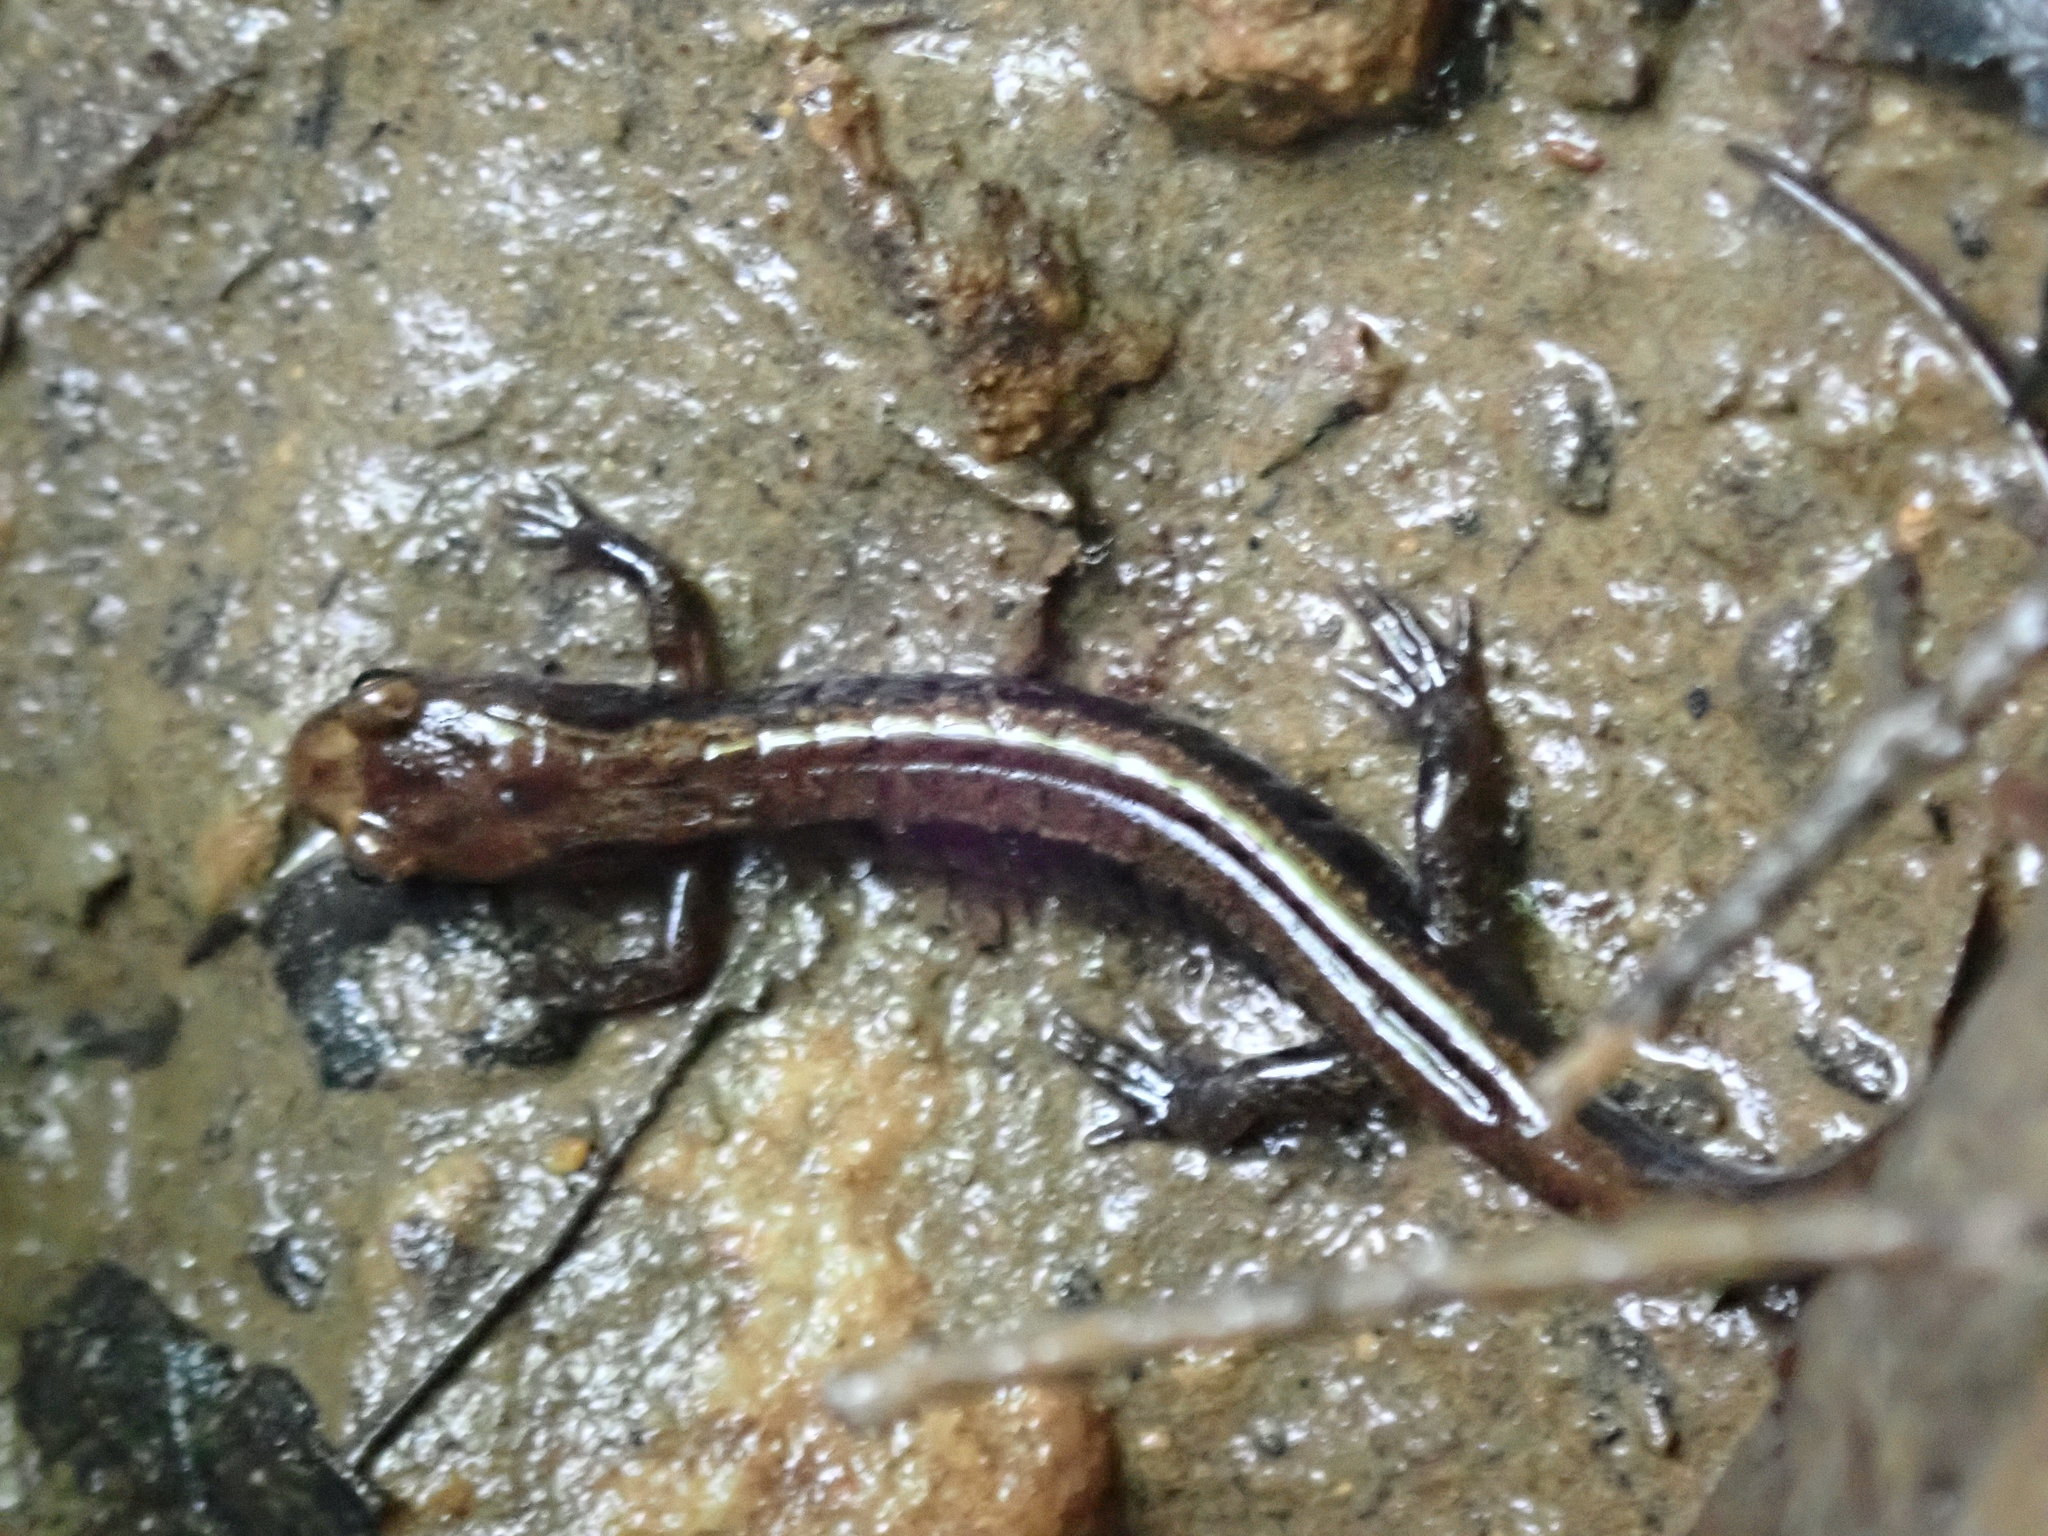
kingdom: Animalia
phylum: Chordata
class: Amphibia
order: Caudata
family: Plethodontidae
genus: Desmognathus
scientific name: Desmognathus ochrophaeus
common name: Allegheny mountain dusky salamander
